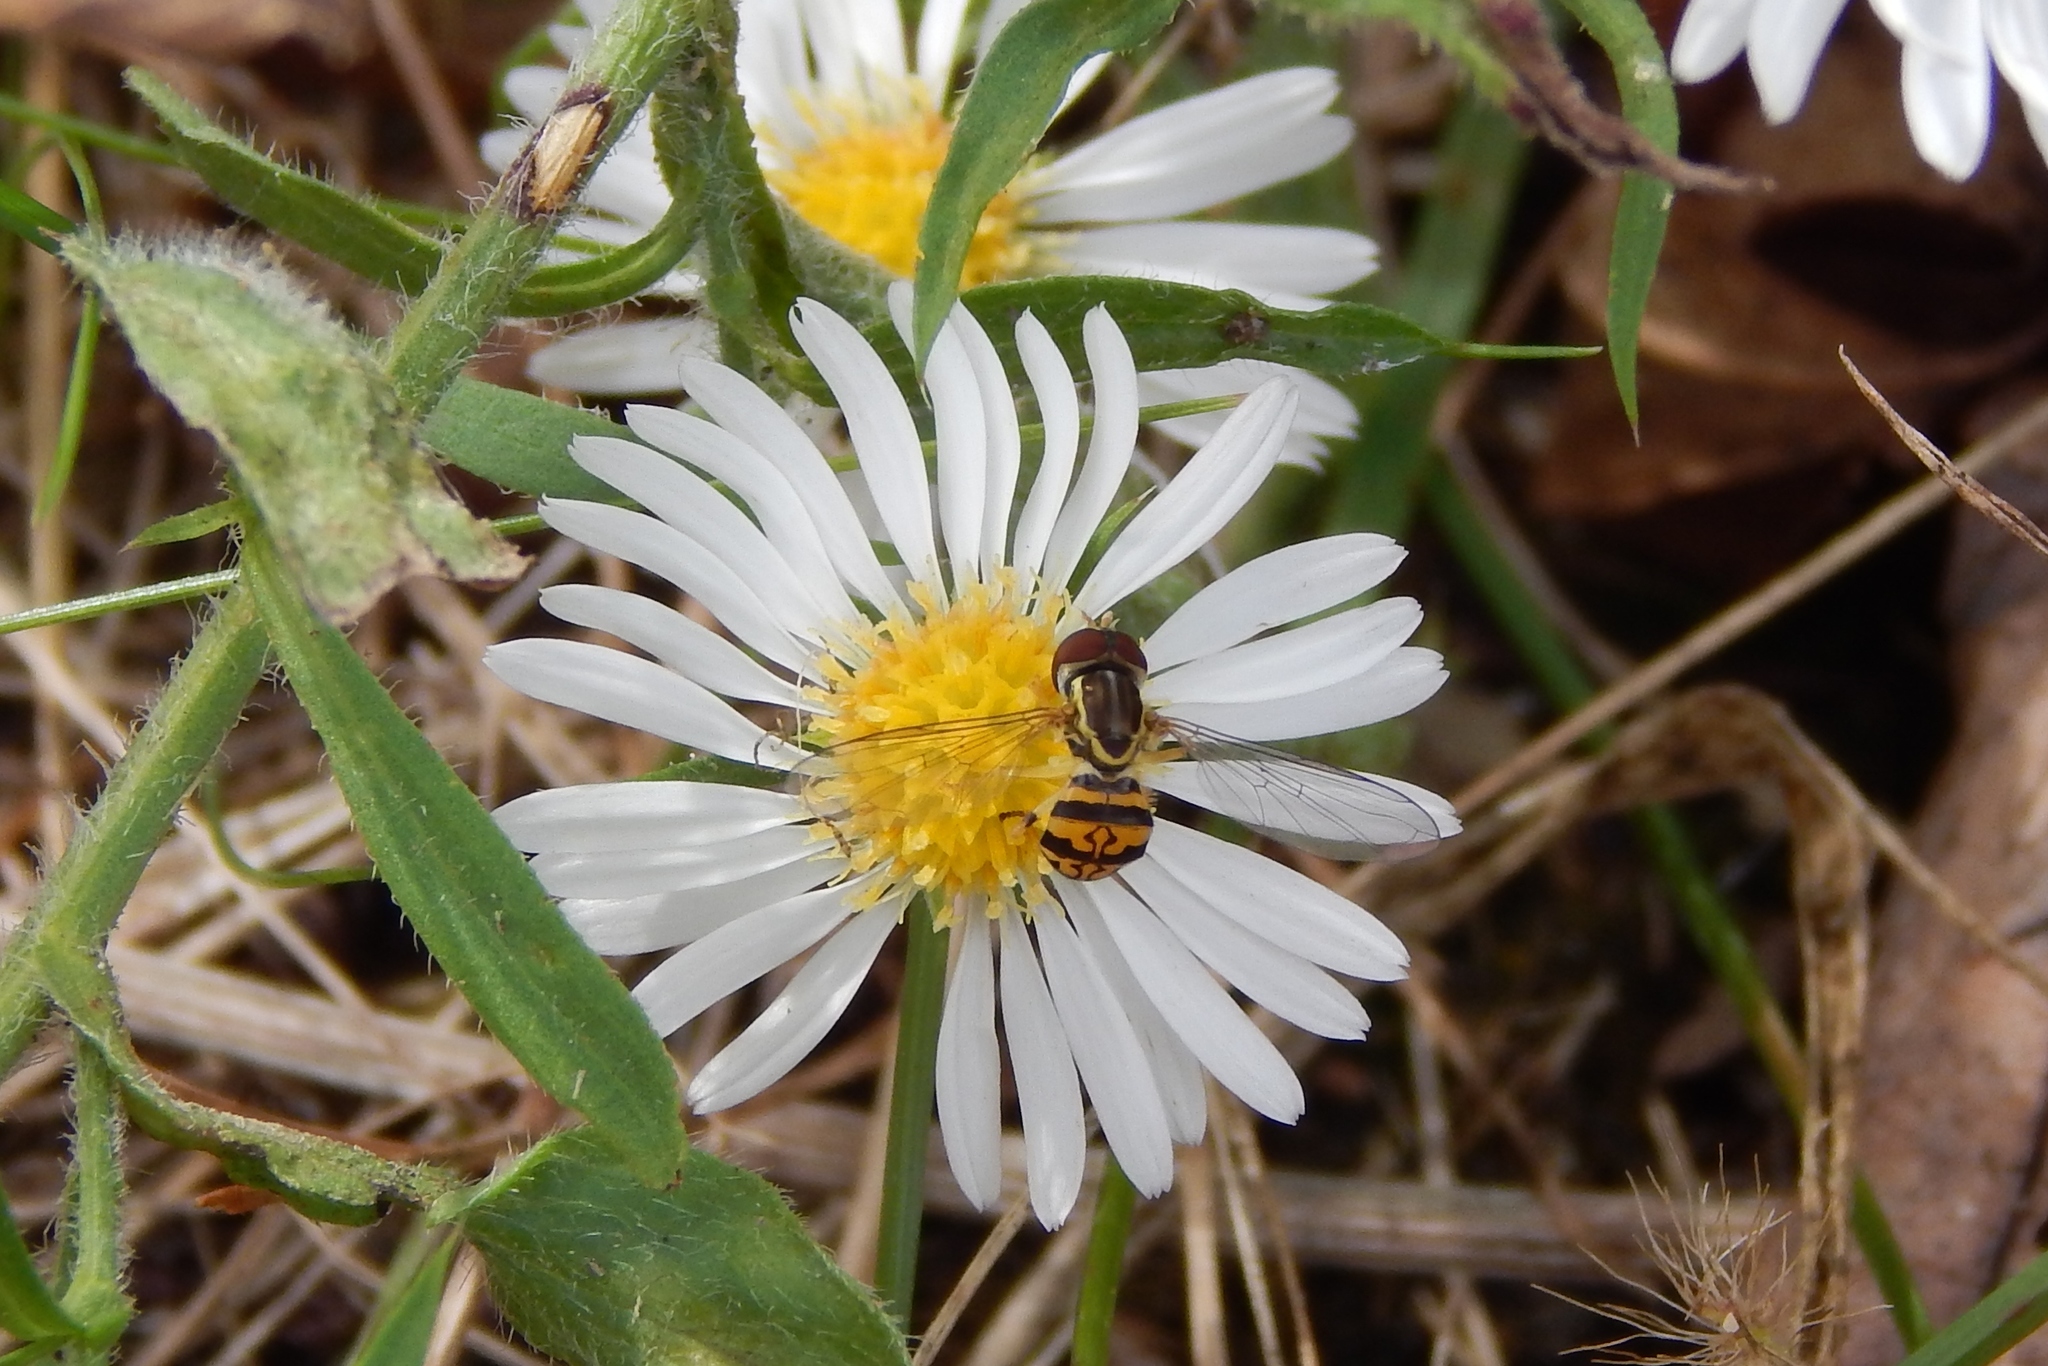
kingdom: Animalia
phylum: Arthropoda
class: Insecta
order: Diptera
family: Syrphidae
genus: Toxomerus
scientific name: Toxomerus geminatus
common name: Eastern calligrapher
